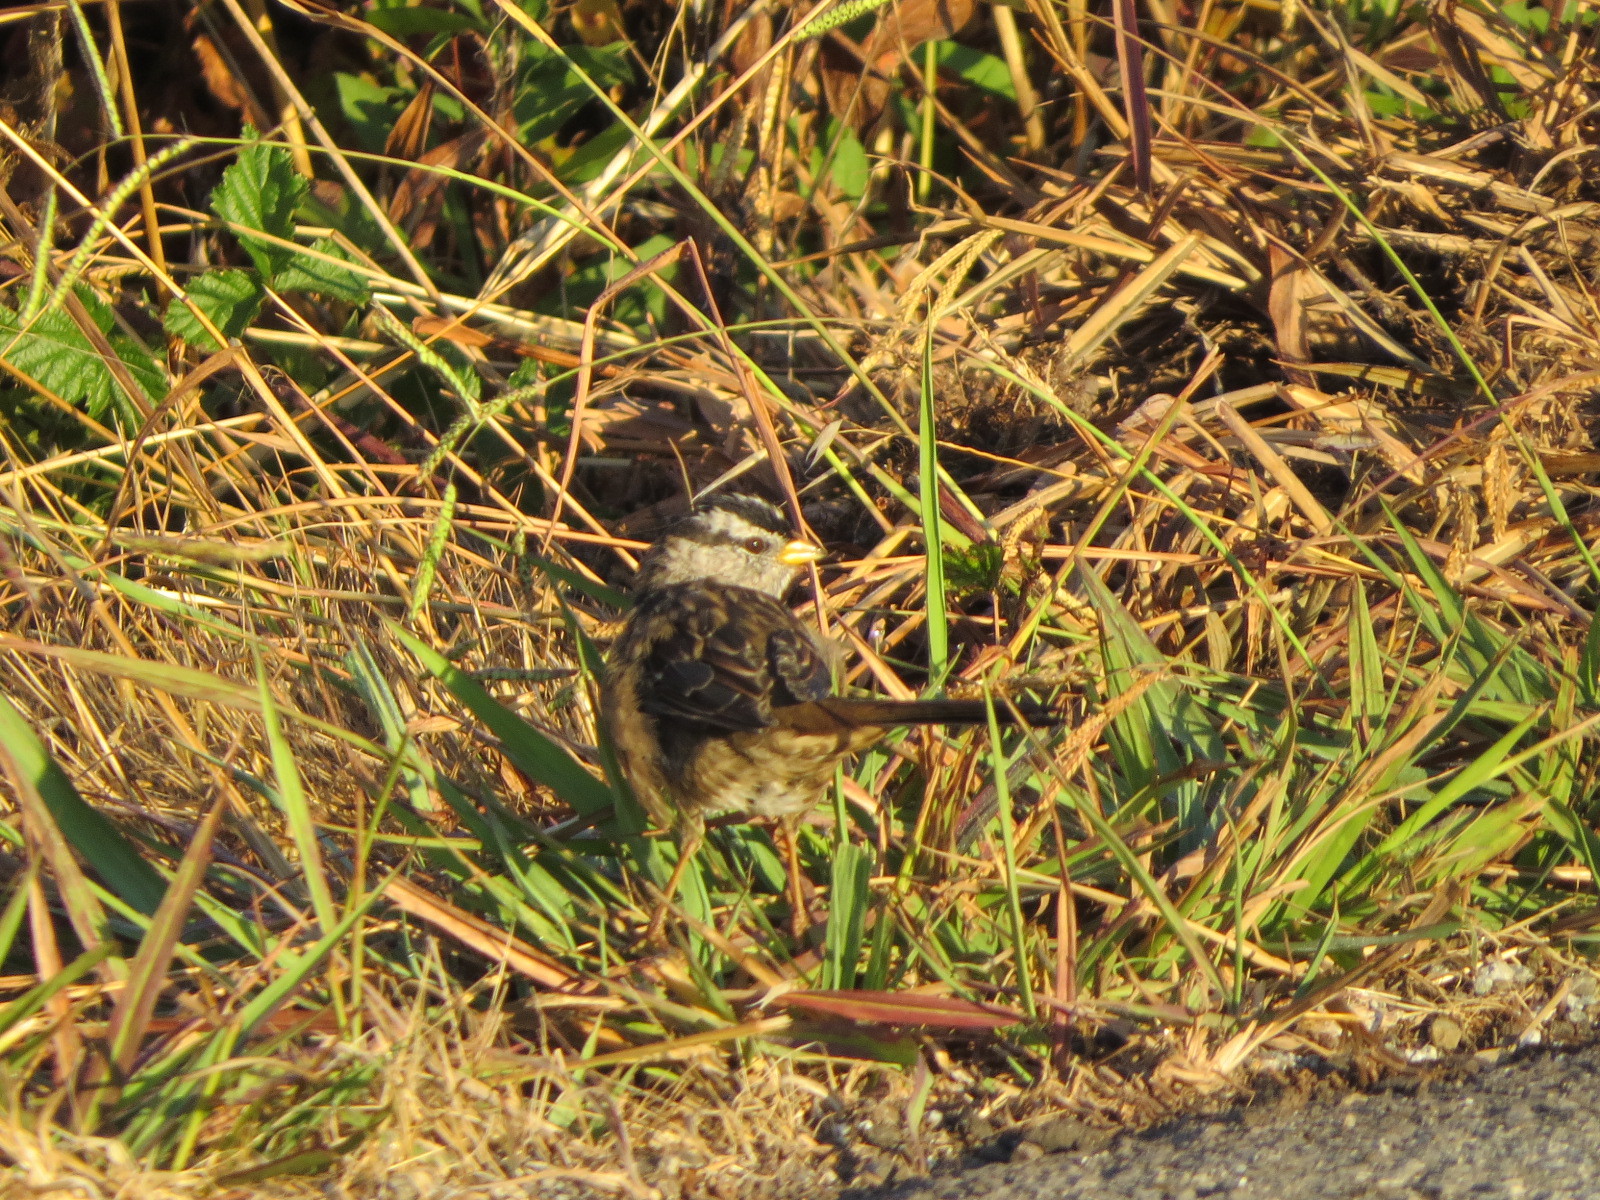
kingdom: Animalia
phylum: Chordata
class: Aves
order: Passeriformes
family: Passerellidae
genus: Zonotrichia
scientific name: Zonotrichia leucophrys
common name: White-crowned sparrow
